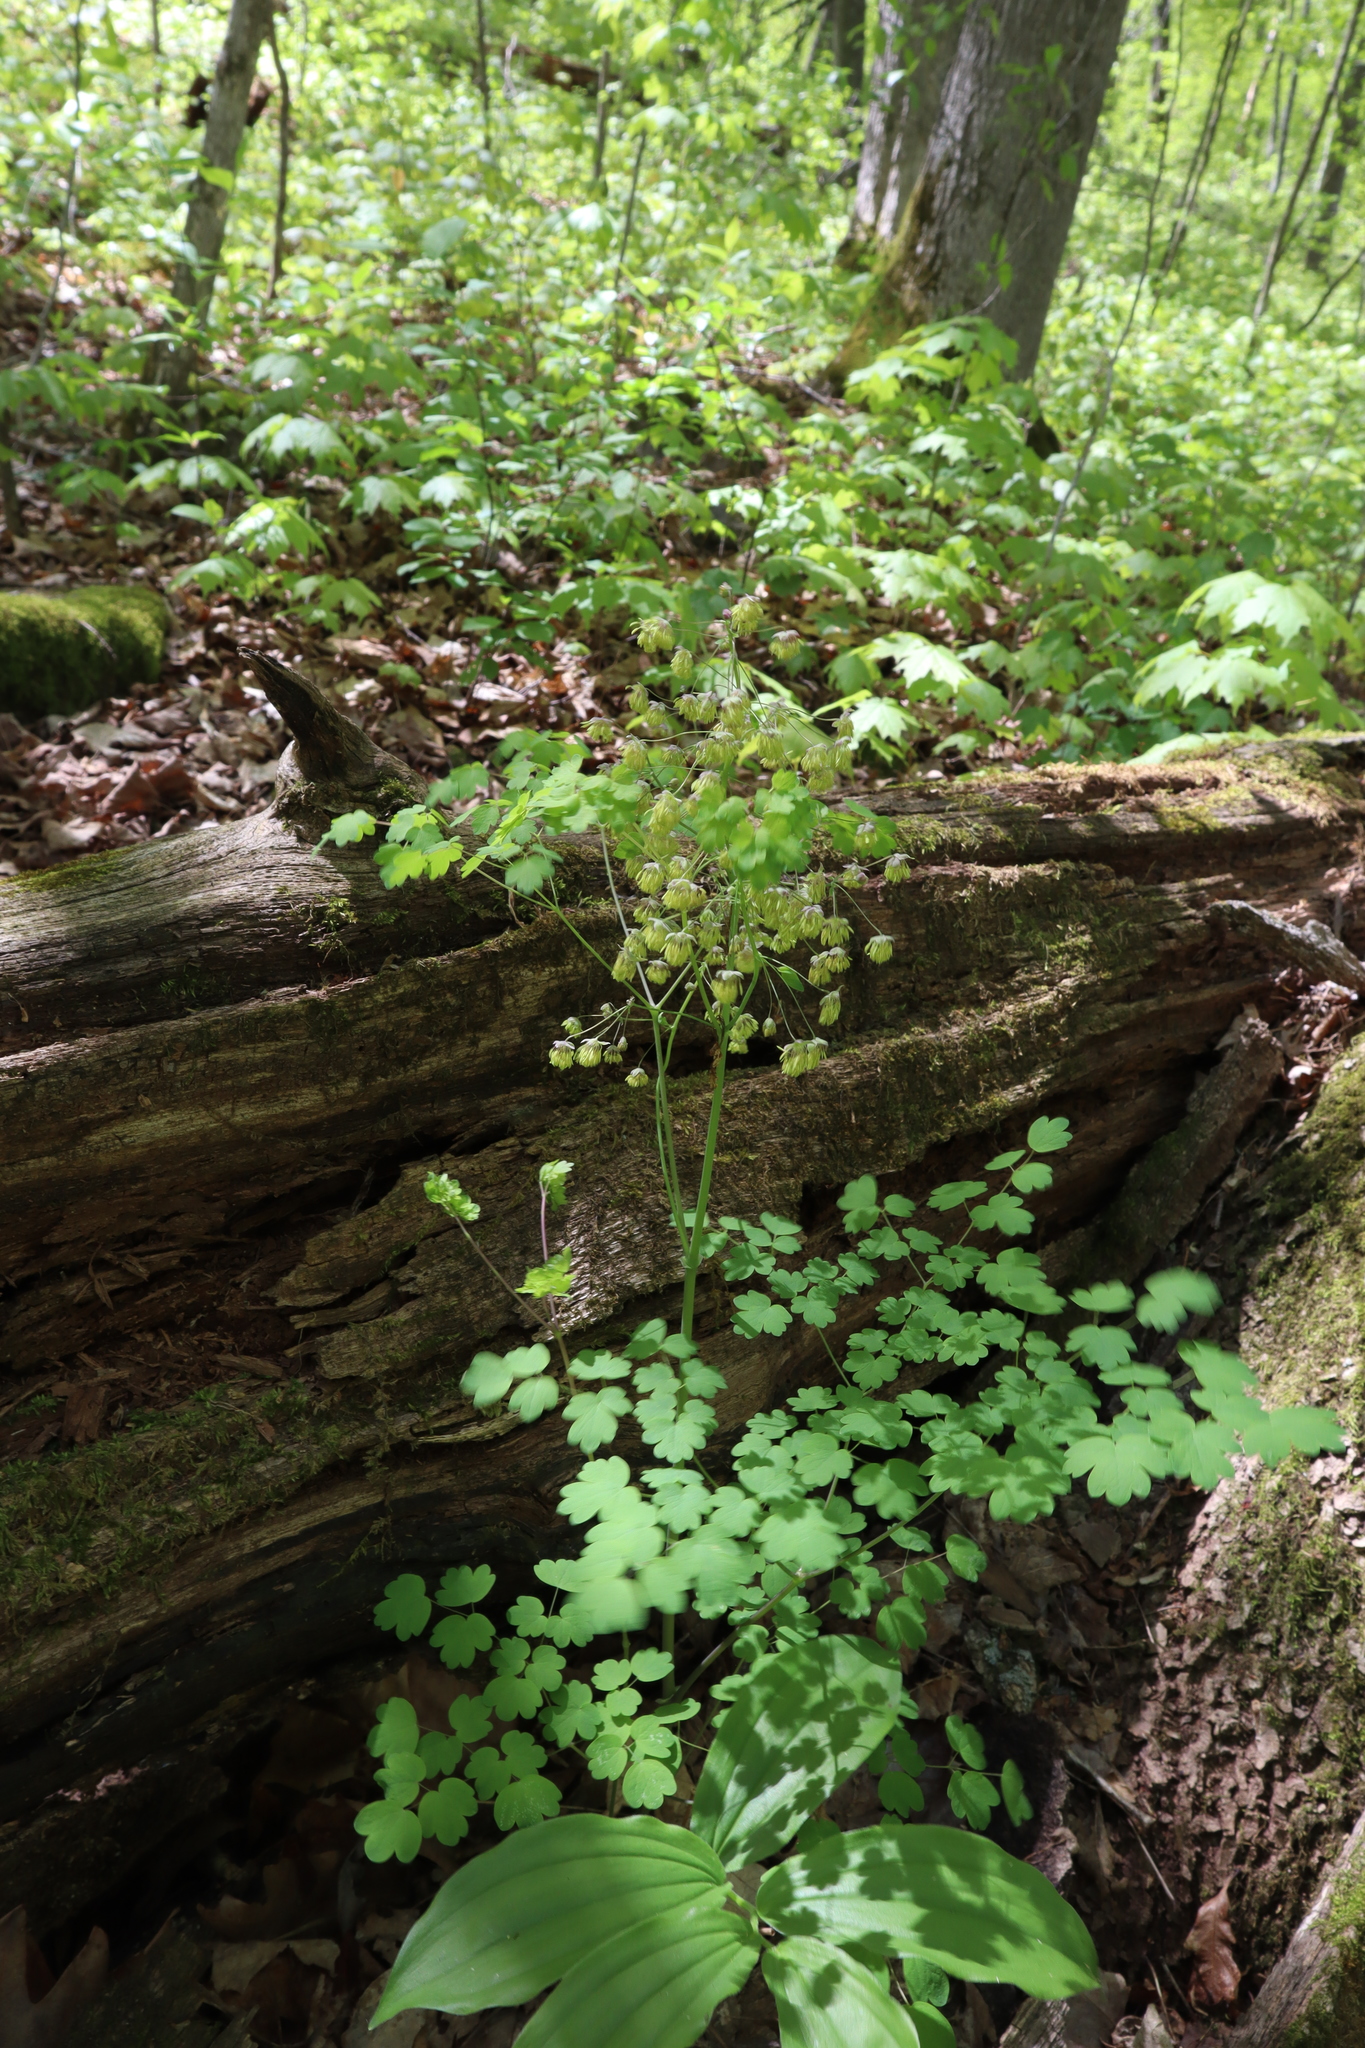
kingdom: Plantae
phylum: Tracheophyta
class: Magnoliopsida
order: Ranunculales
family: Ranunculaceae
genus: Thalictrum
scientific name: Thalictrum dioicum
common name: Early meadow-rue
